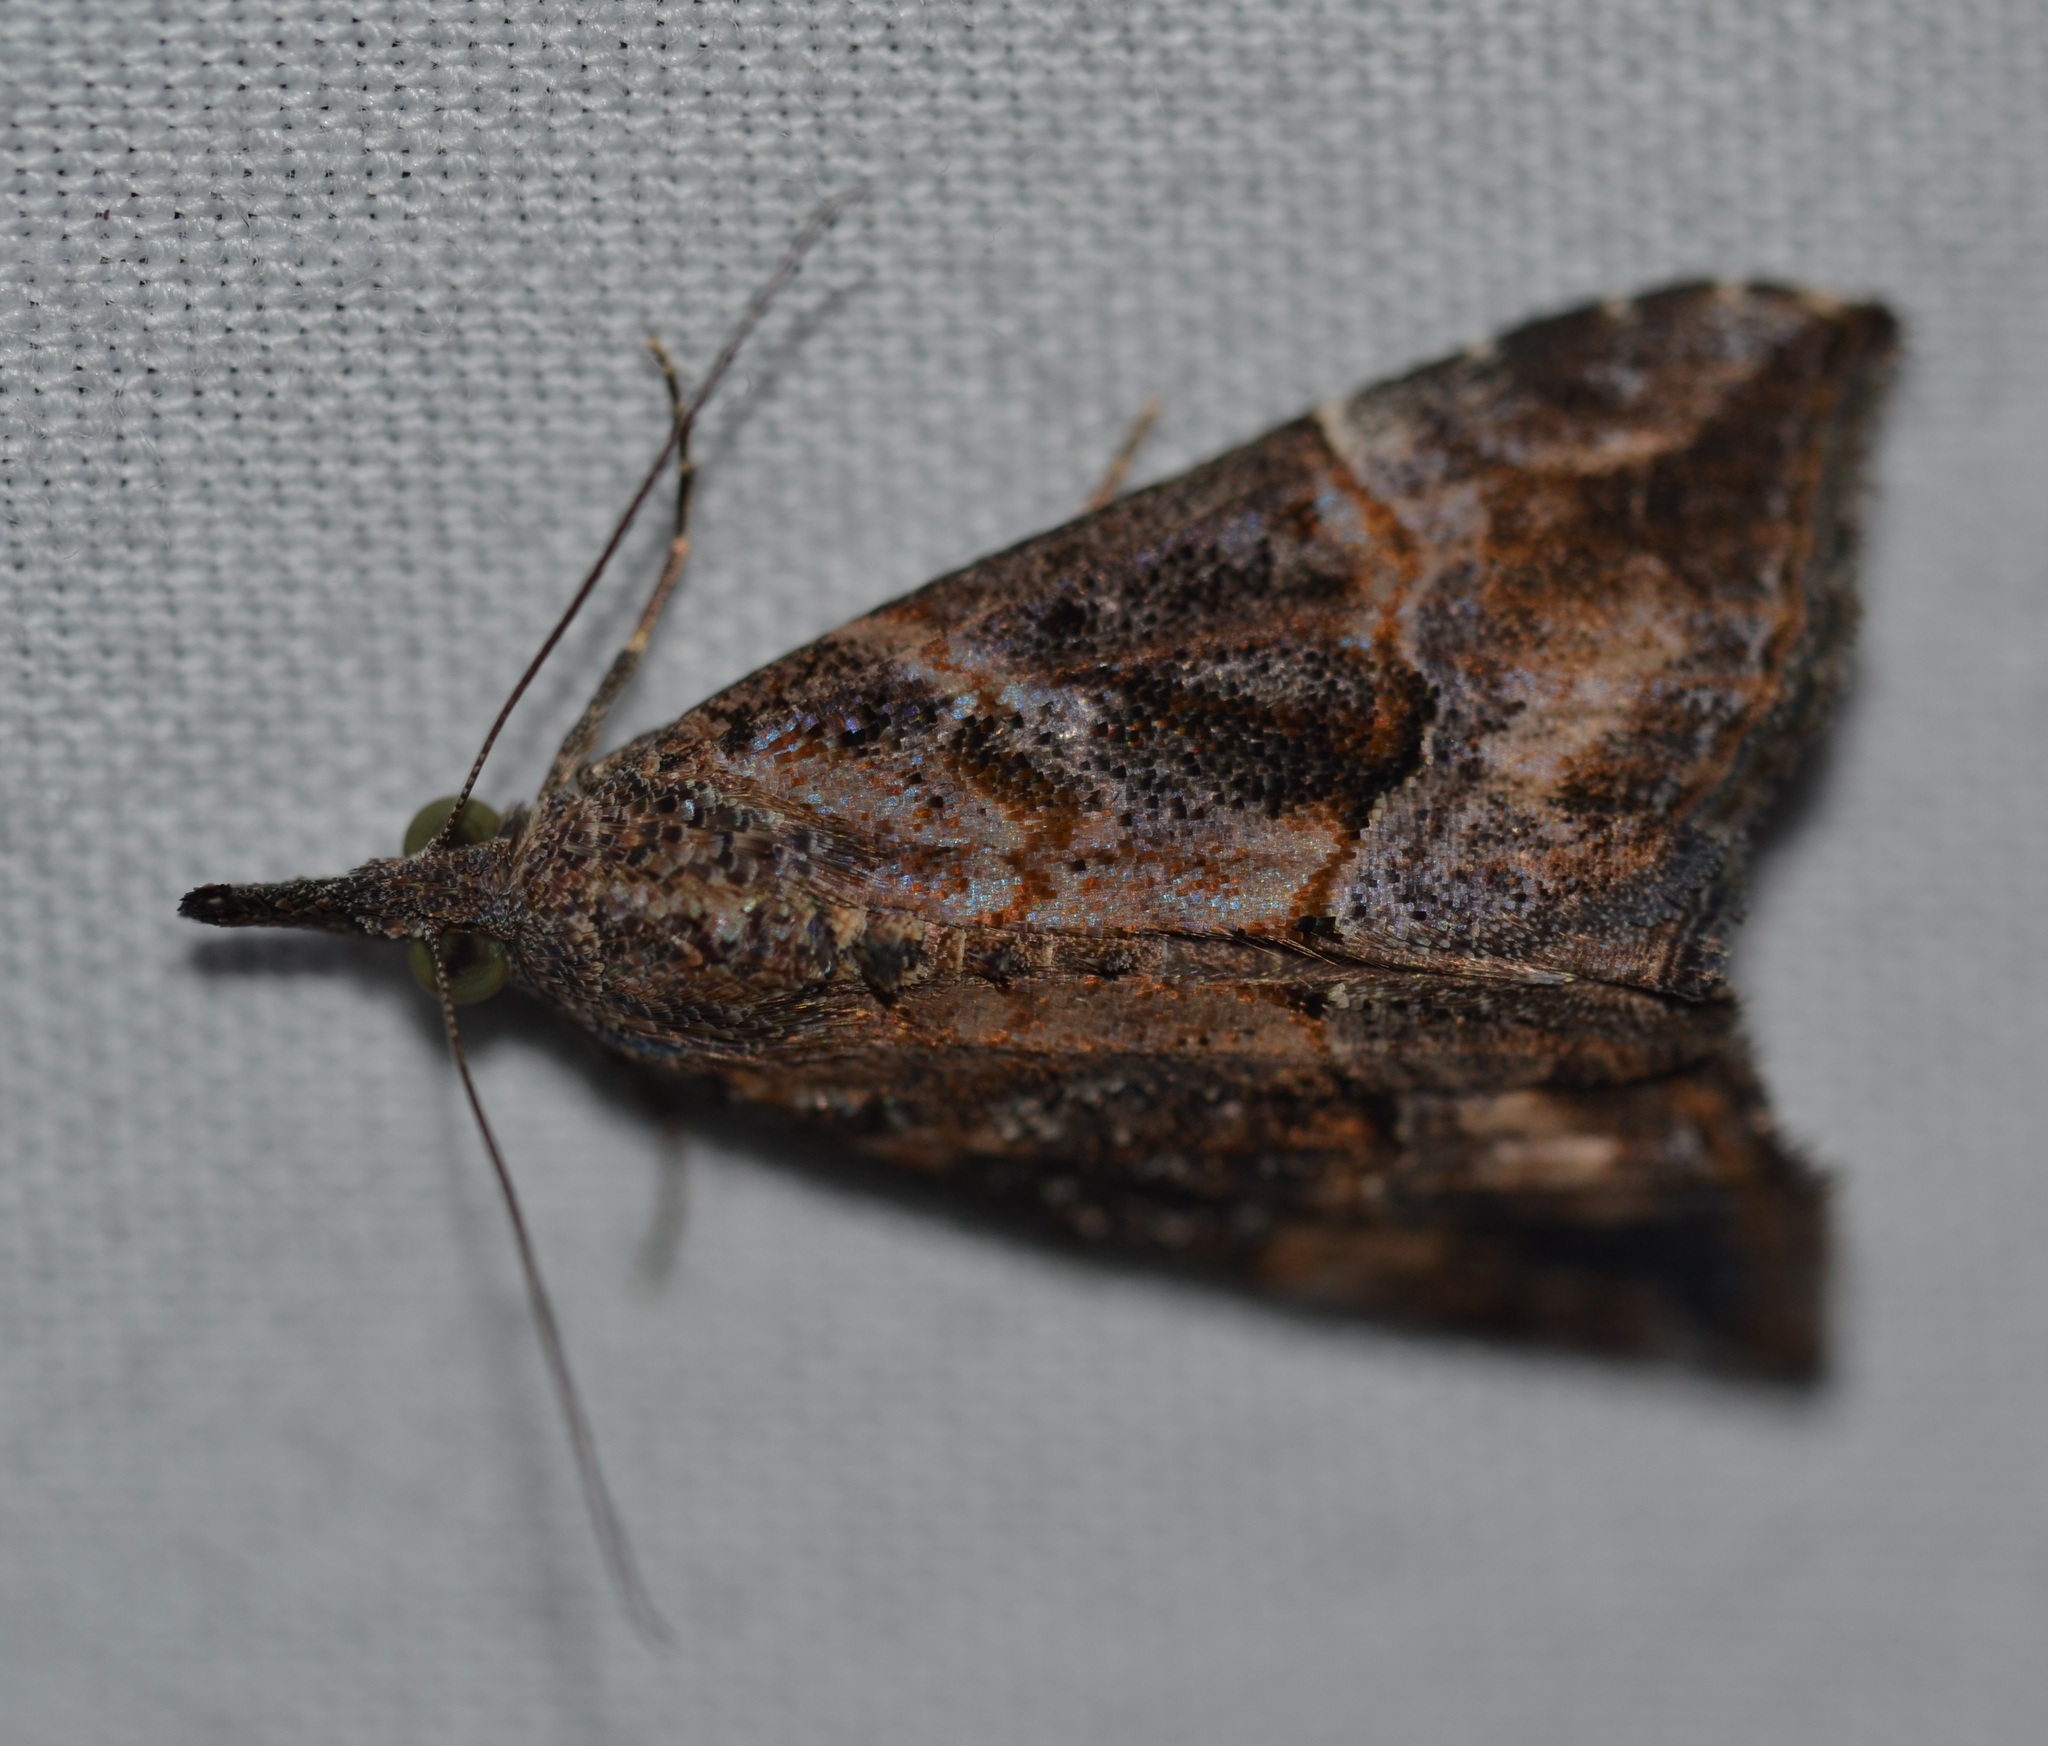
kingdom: Animalia
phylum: Arthropoda
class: Insecta
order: Lepidoptera
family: Erebidae
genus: Hypena
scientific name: Hypena commixtalis
